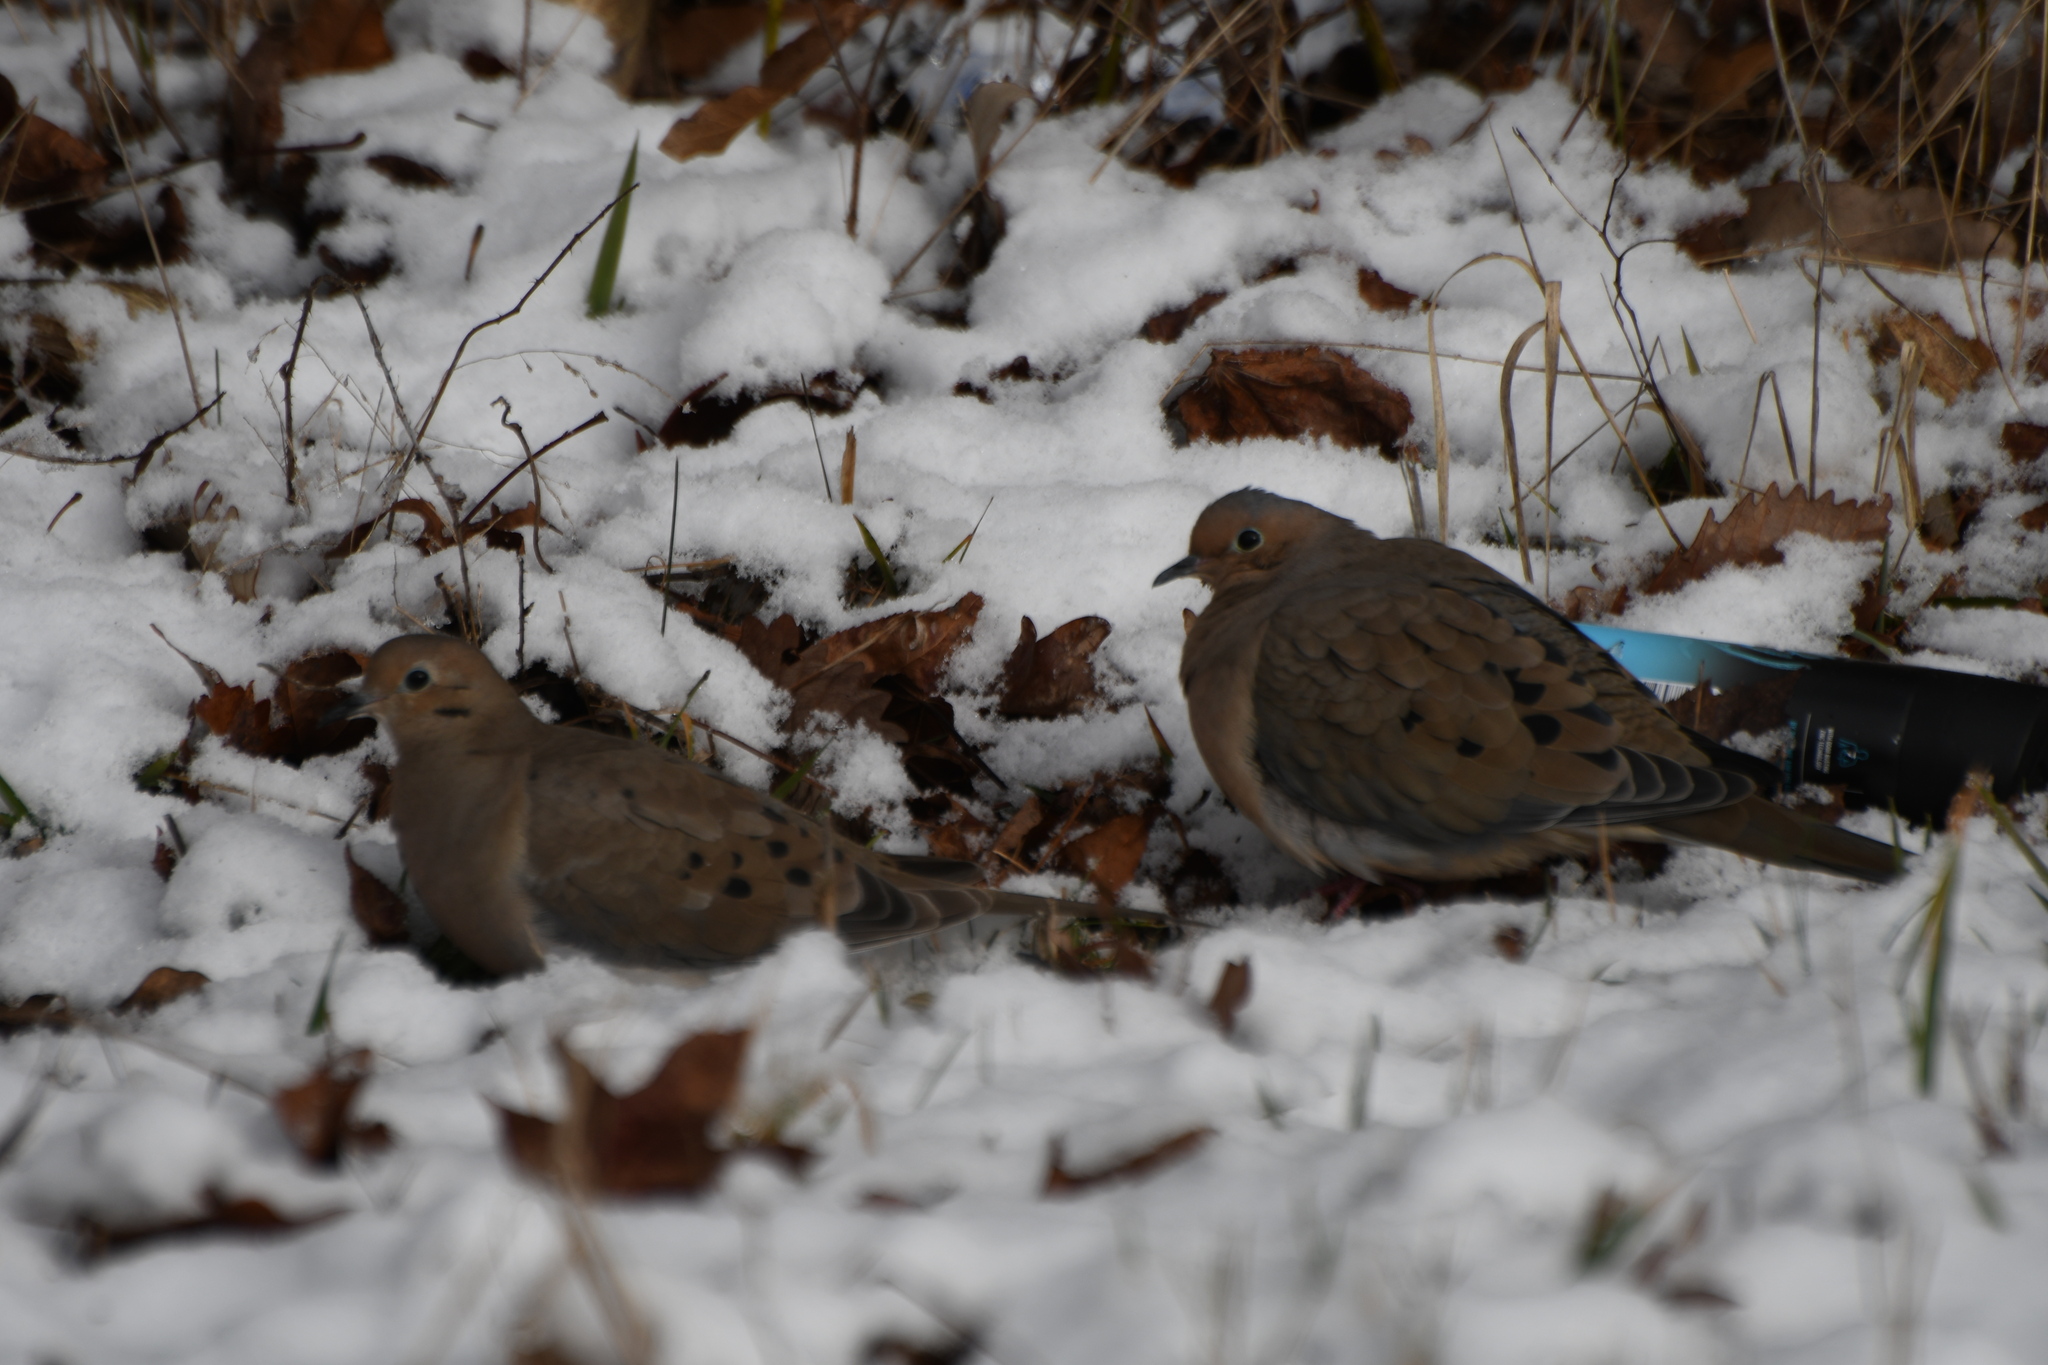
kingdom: Animalia
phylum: Chordata
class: Aves
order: Columbiformes
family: Columbidae
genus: Zenaida
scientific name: Zenaida macroura
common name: Mourning dove
